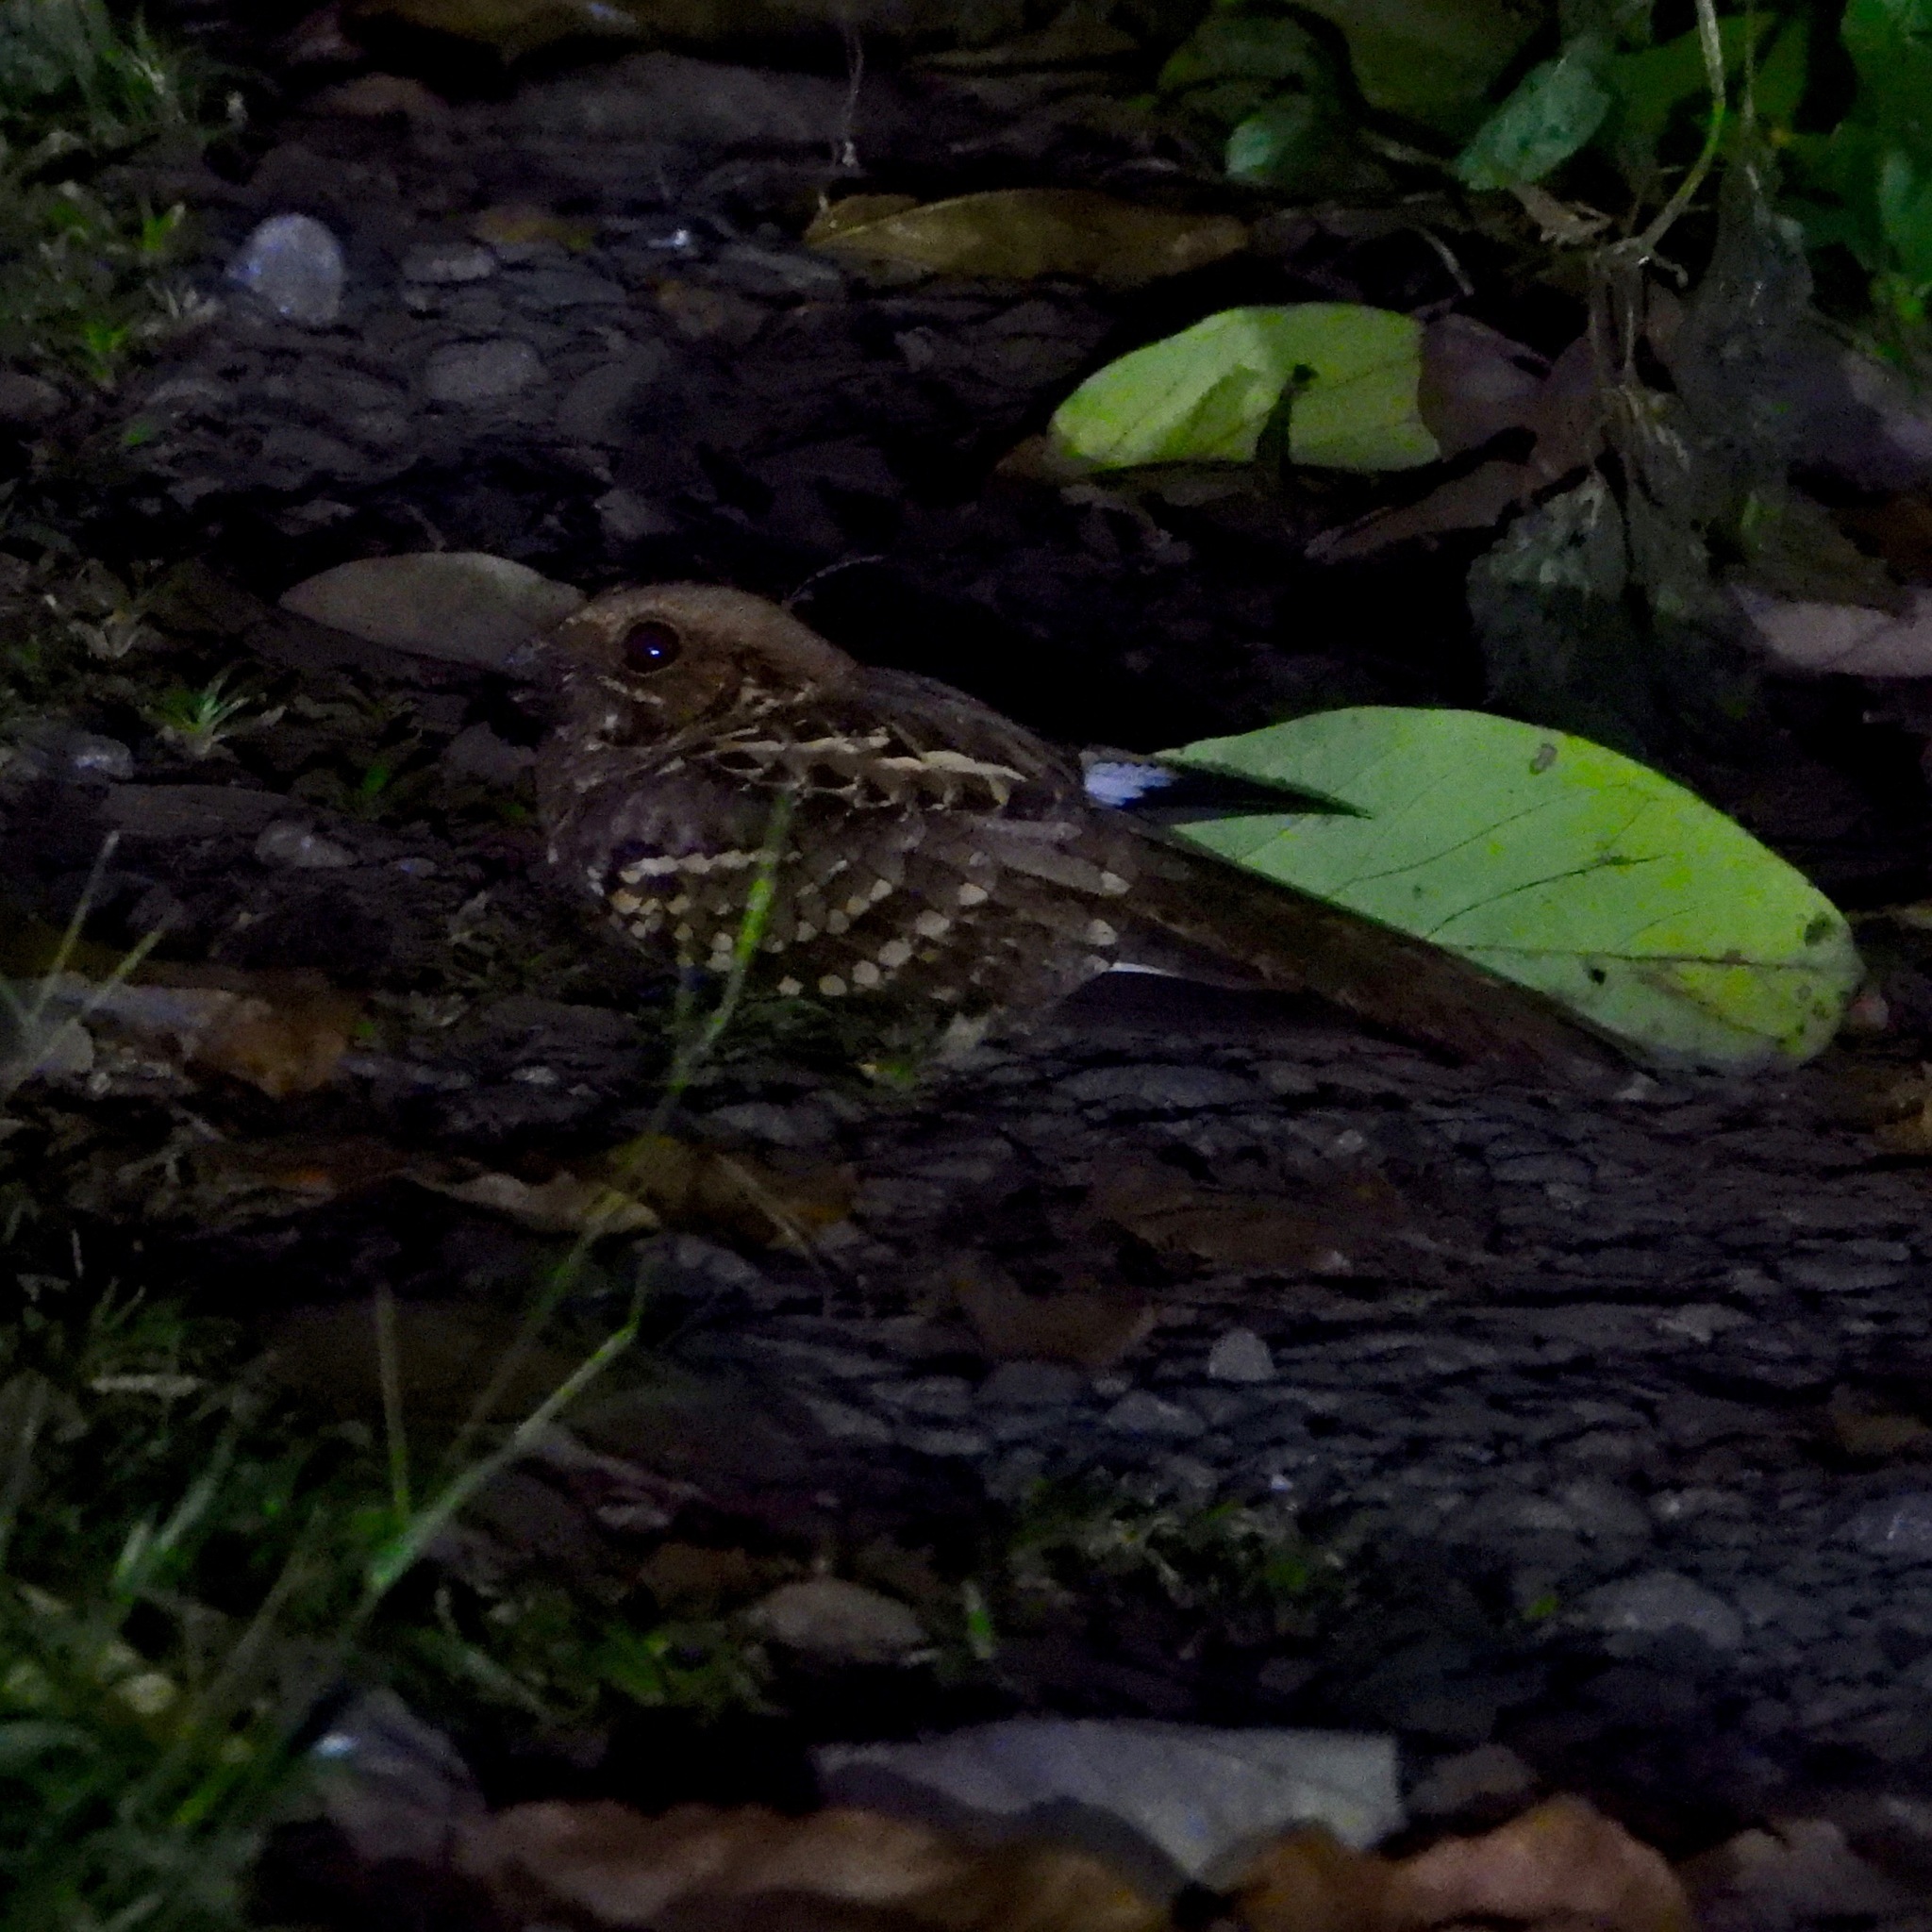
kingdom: Animalia
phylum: Chordata
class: Aves
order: Caprimulgiformes
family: Caprimulgidae
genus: Nyctidromus
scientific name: Nyctidromus albicollis
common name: Pauraque
